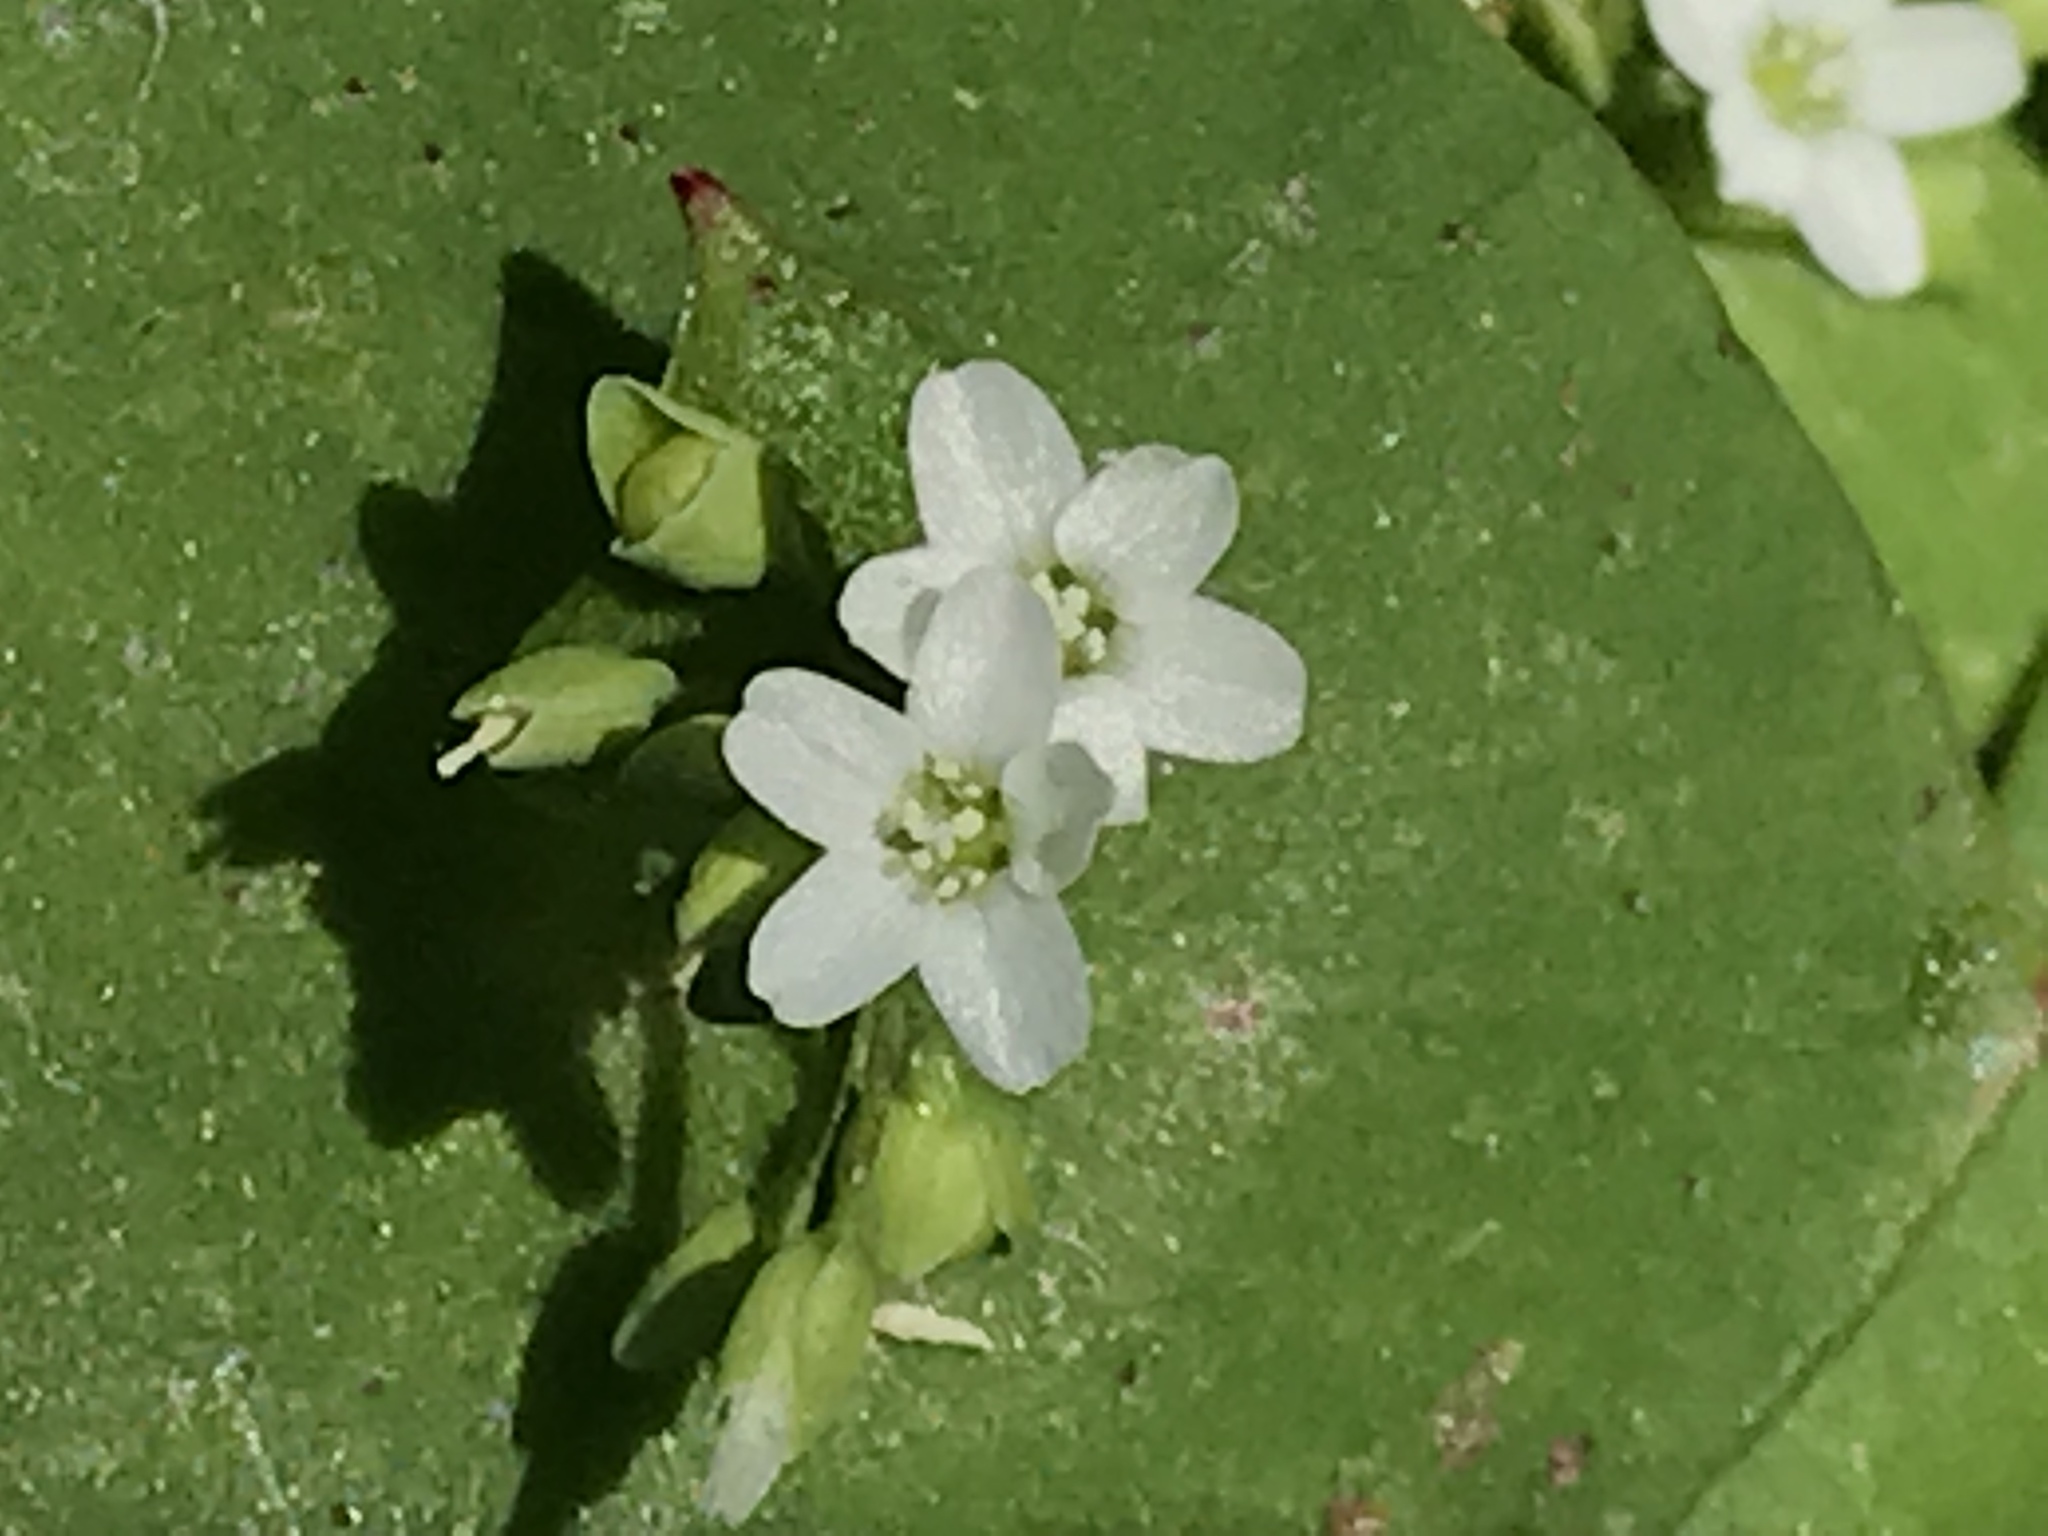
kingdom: Plantae
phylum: Tracheophyta
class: Magnoliopsida
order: Caryophyllales
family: Montiaceae
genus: Claytonia
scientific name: Claytonia perfoliata
